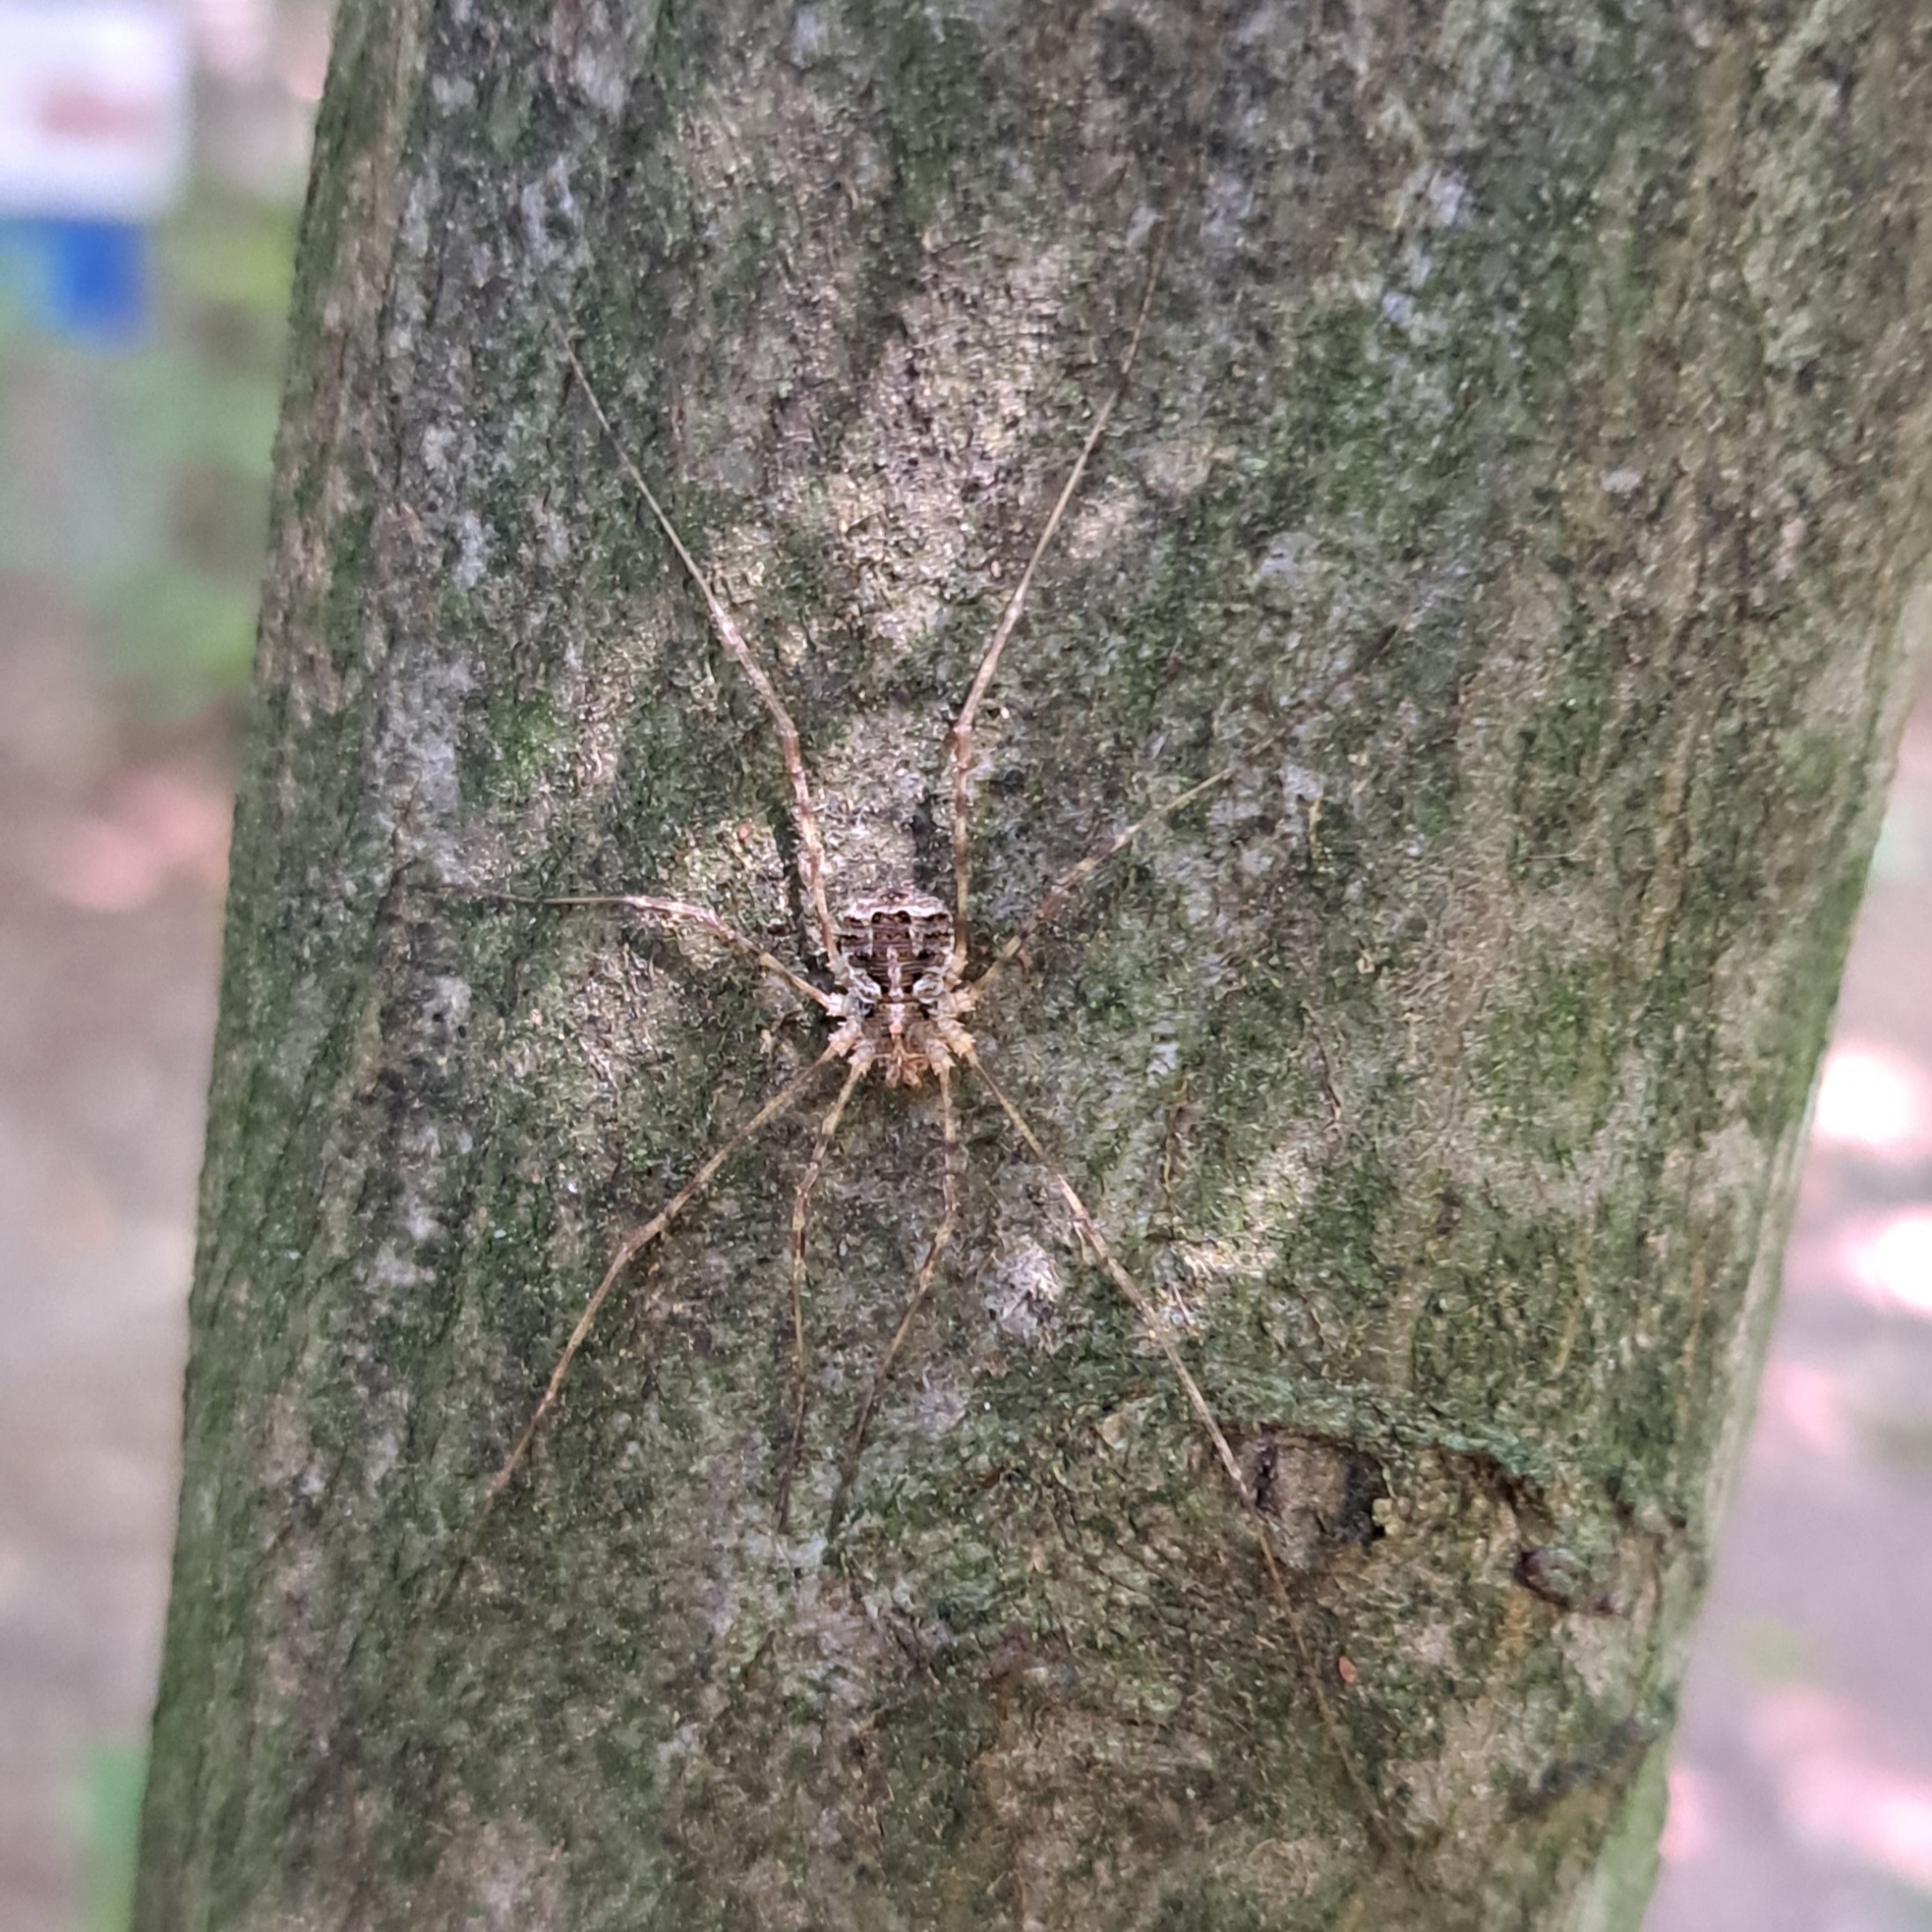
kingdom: Animalia
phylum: Arthropoda
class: Arachnida
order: Opiliones
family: Phalangiidae
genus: Lacinius
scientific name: Lacinius dentiger
